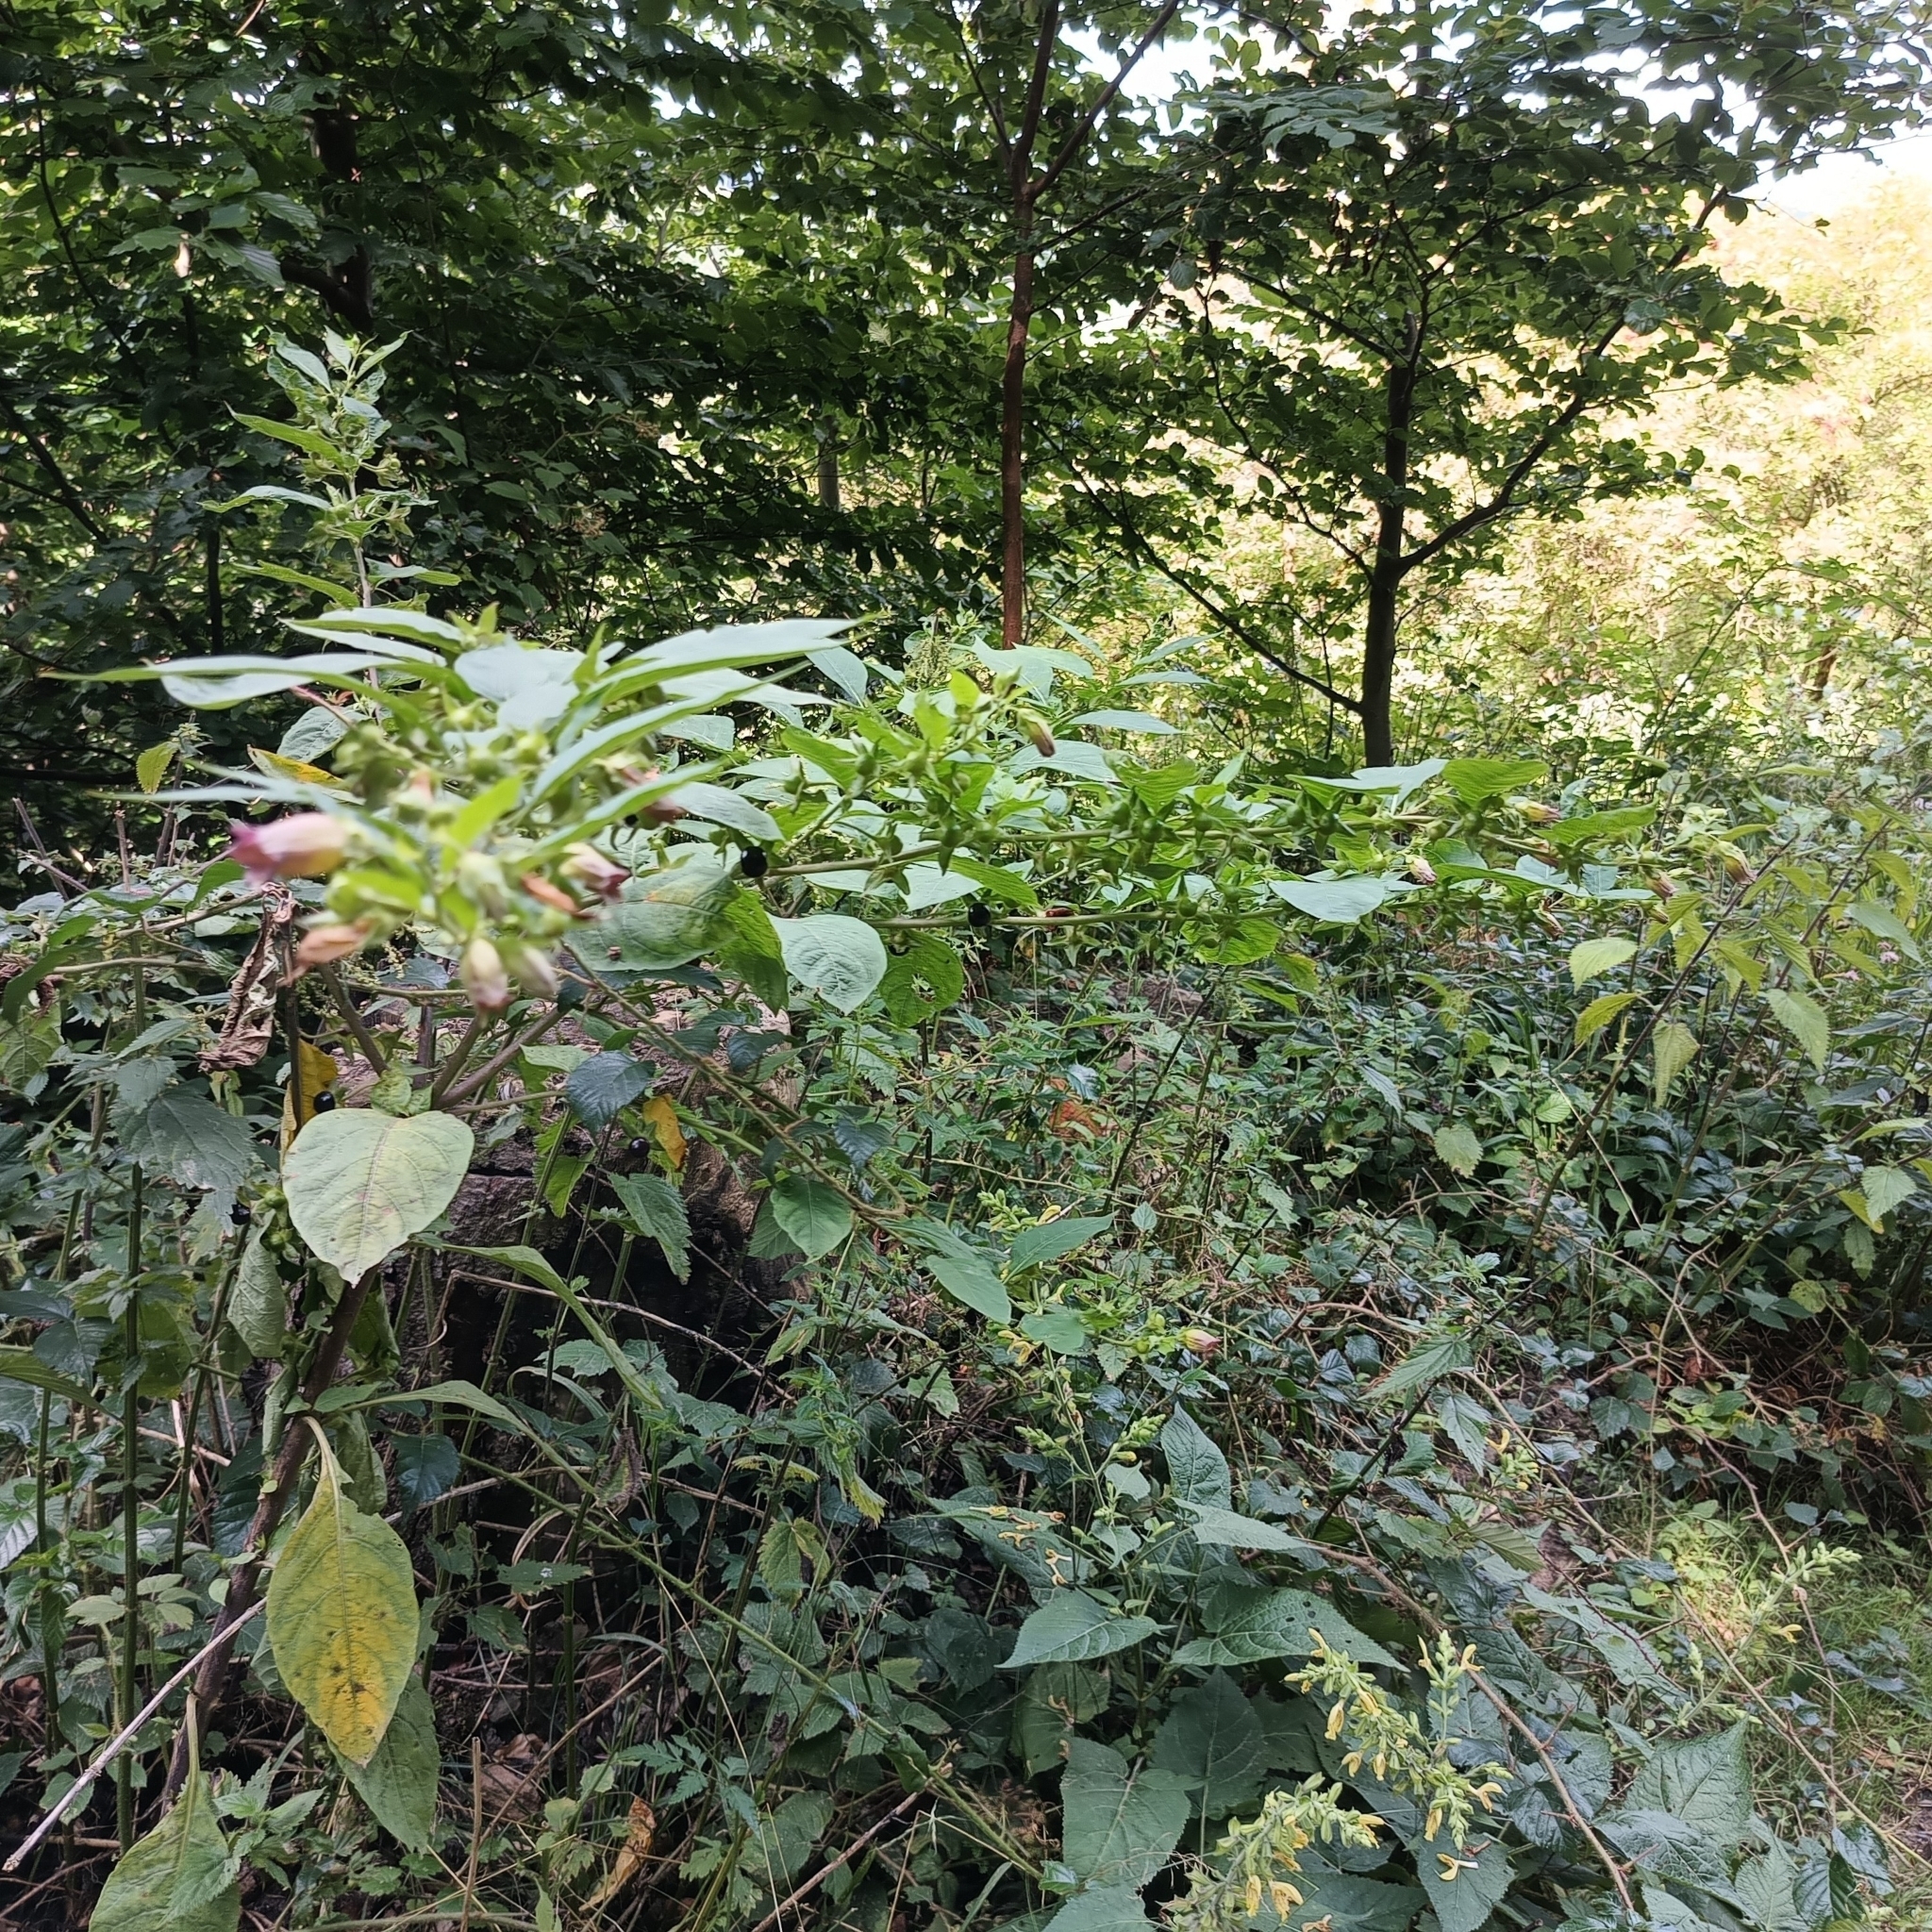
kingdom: Plantae
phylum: Tracheophyta
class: Magnoliopsida
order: Solanales
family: Solanaceae
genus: Atropa
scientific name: Atropa belladonna
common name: Deadly nightshade
